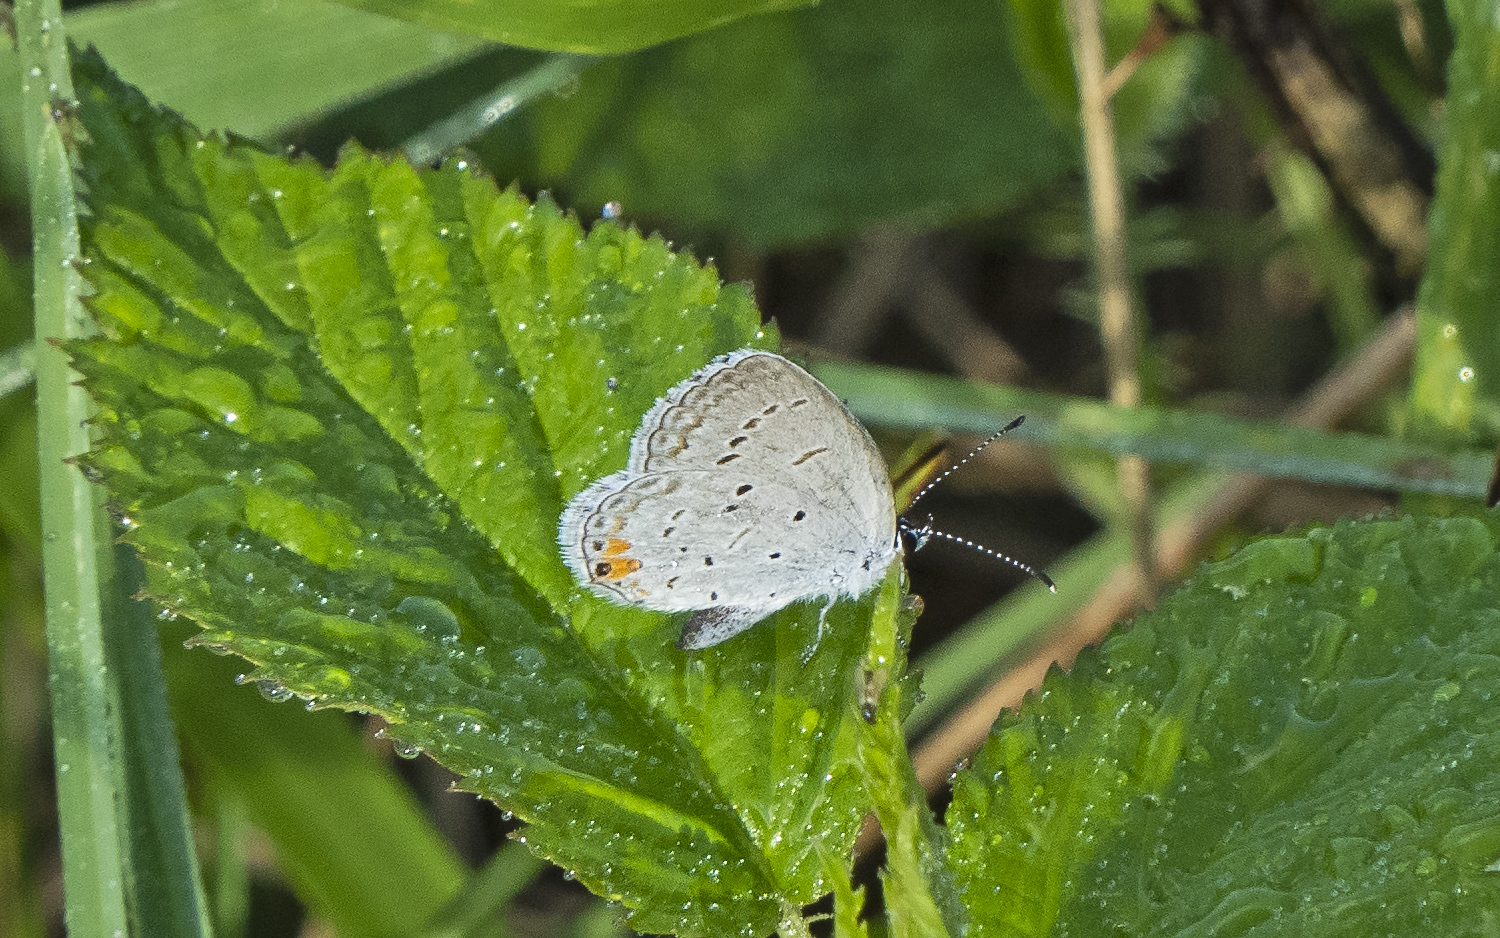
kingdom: Animalia
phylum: Arthropoda
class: Insecta
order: Lepidoptera
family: Lycaenidae
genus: Elkalyce
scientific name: Elkalyce comyntas
